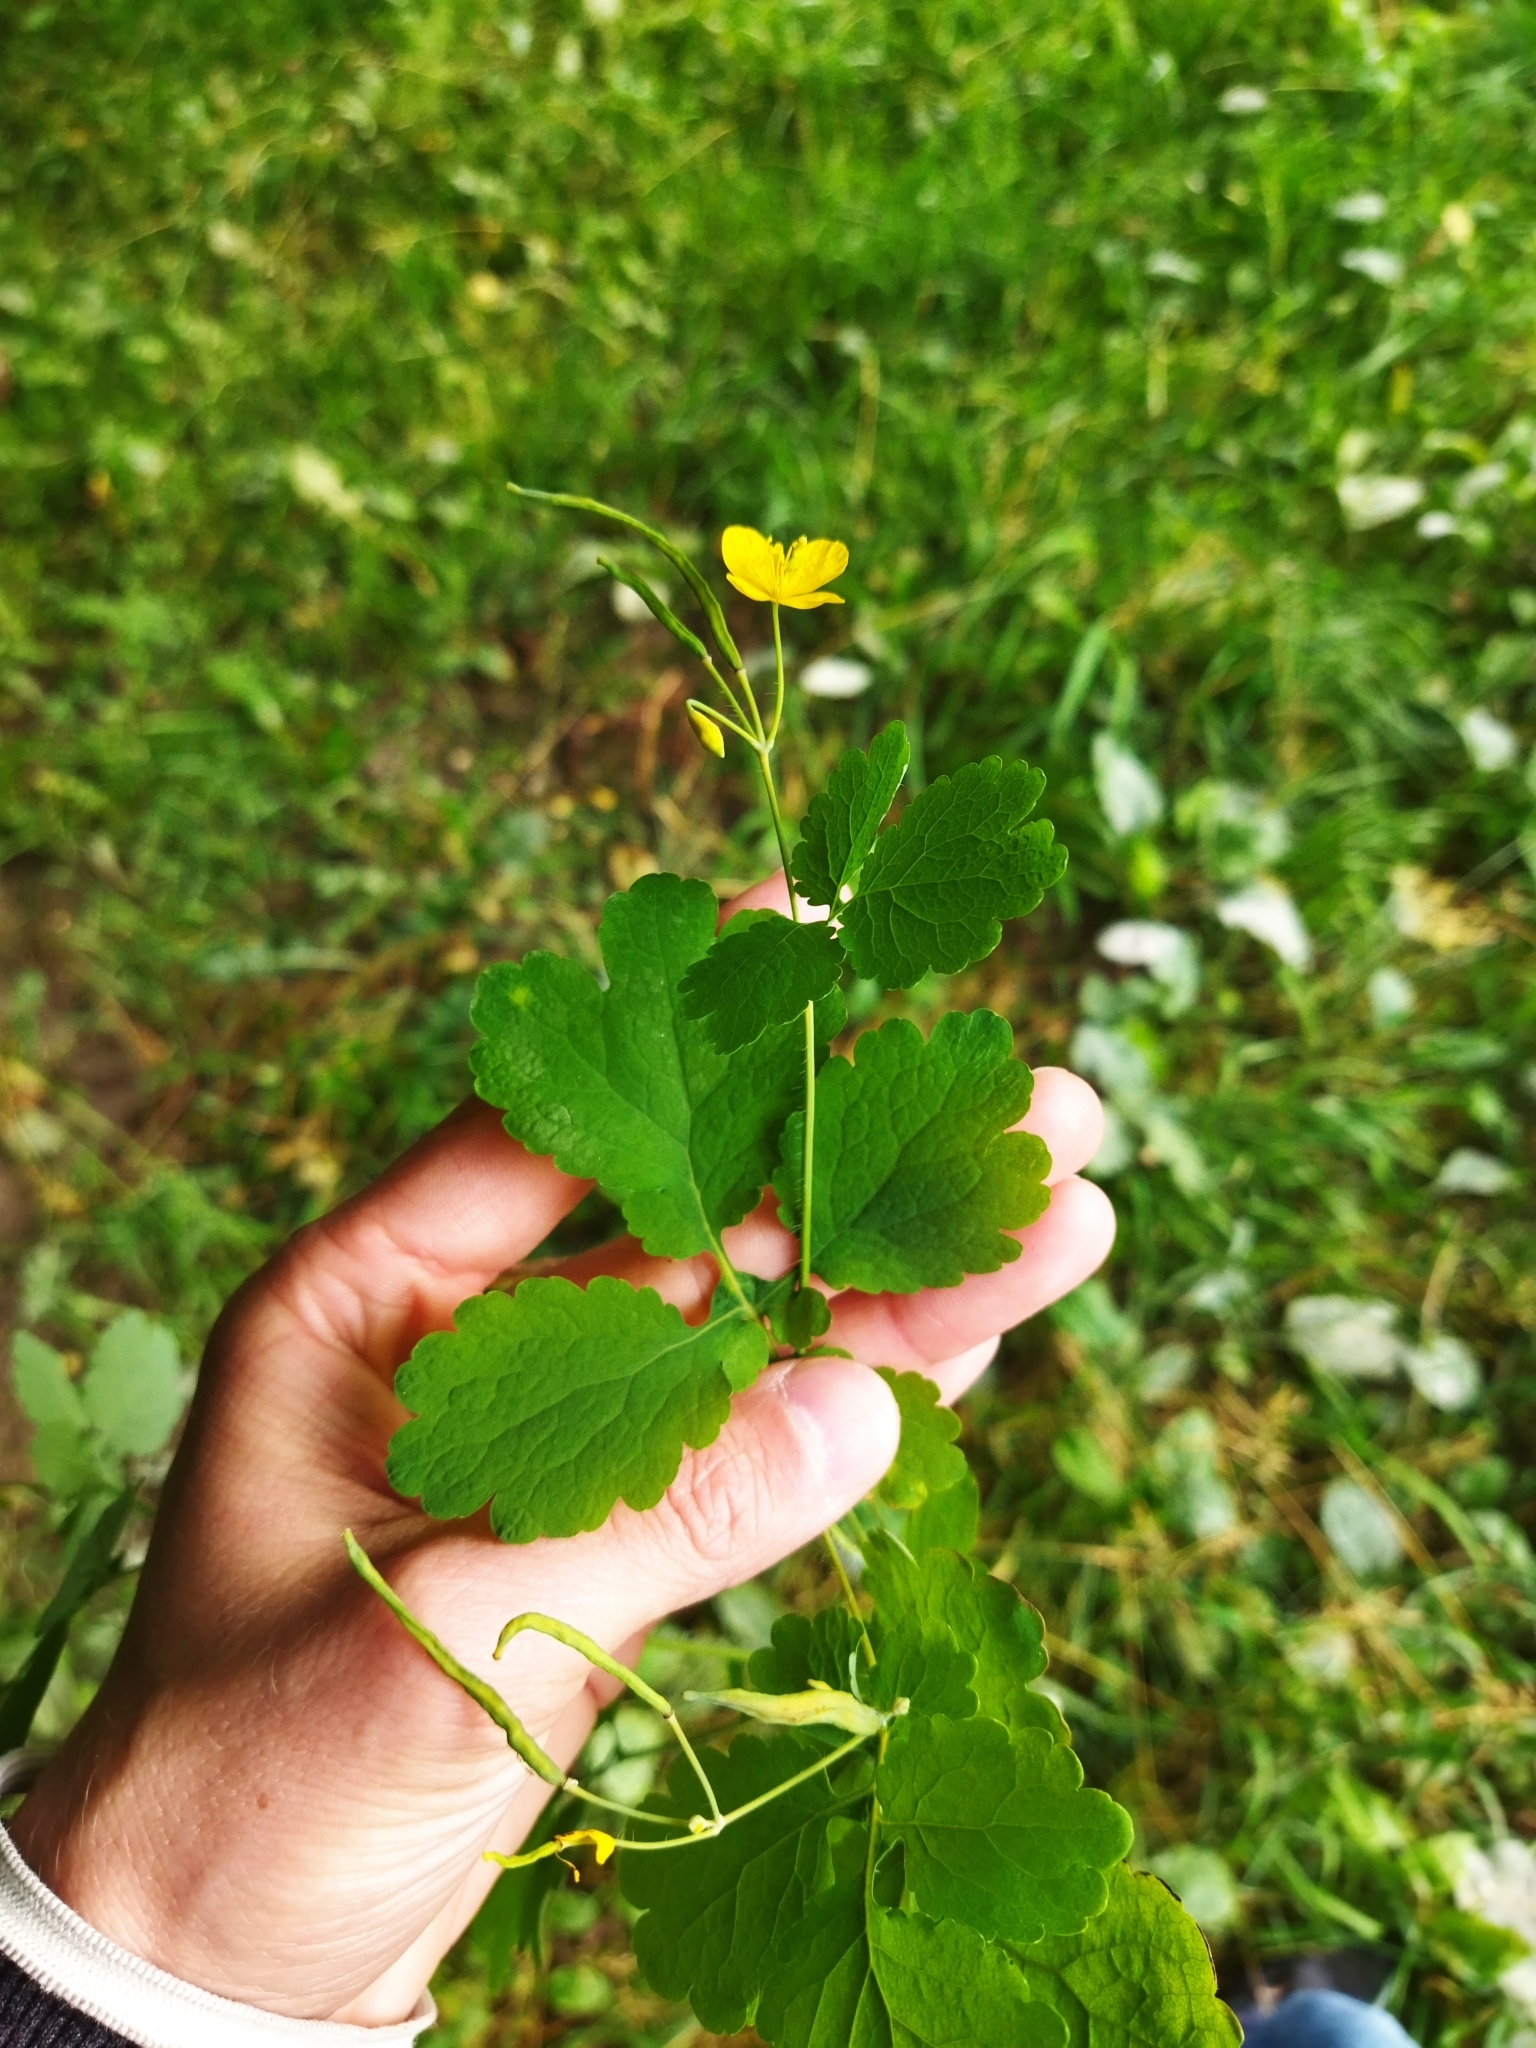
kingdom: Plantae
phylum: Tracheophyta
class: Magnoliopsida
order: Ranunculales
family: Papaveraceae
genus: Chelidonium
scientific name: Chelidonium majus
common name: Greater celandine
